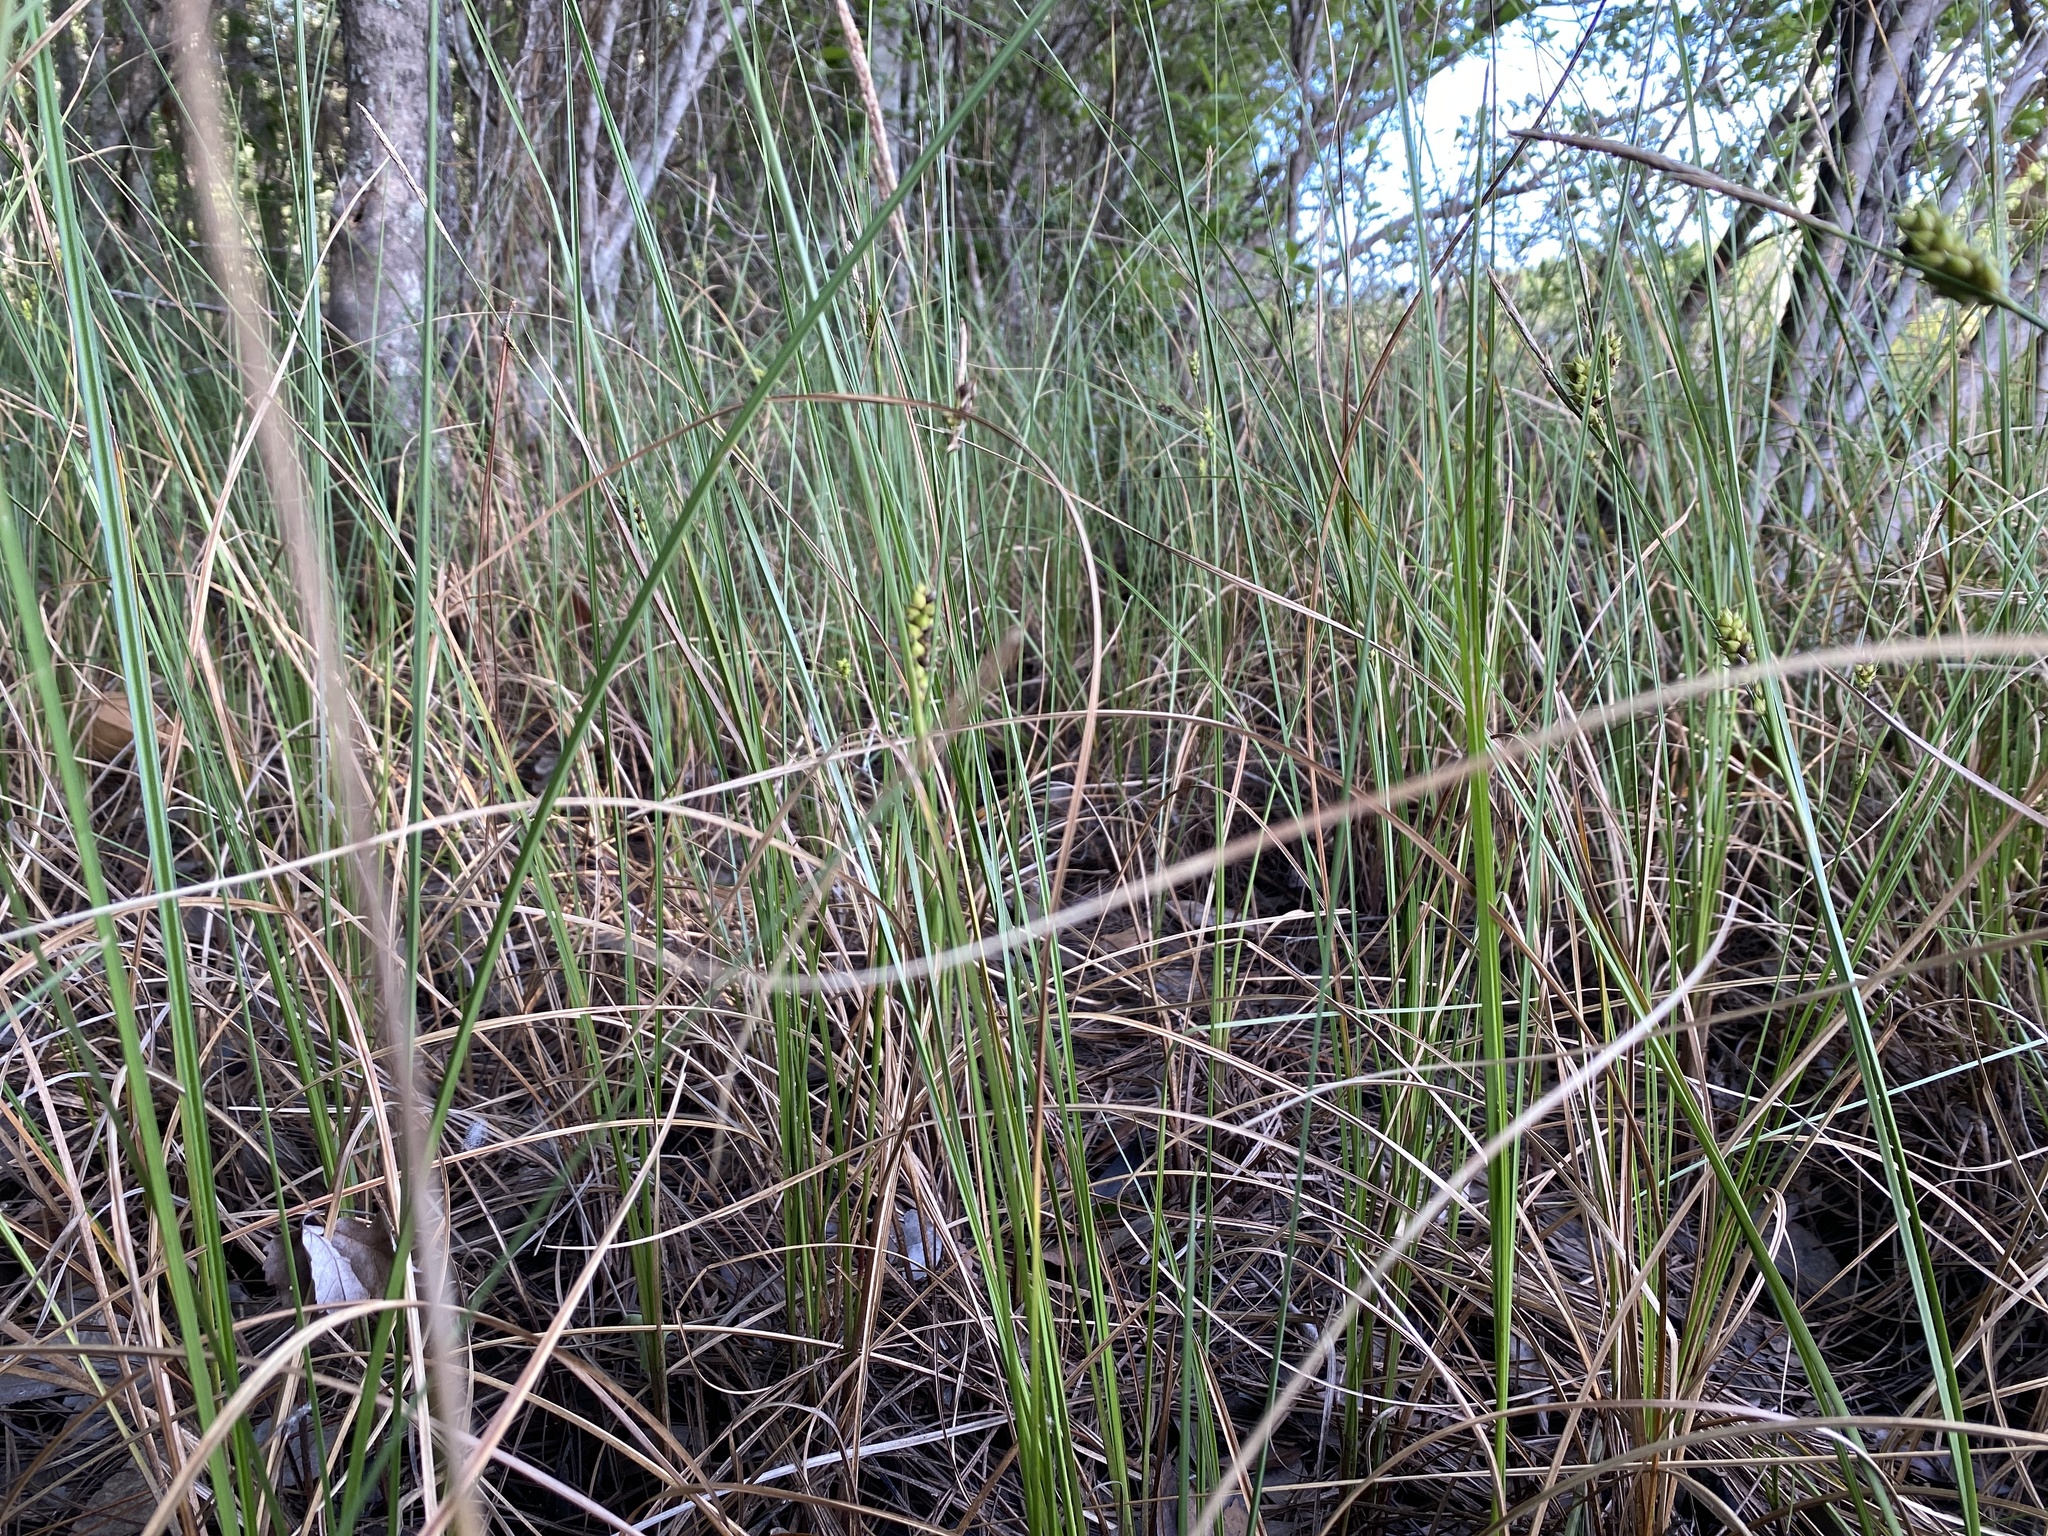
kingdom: Plantae
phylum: Tracheophyta
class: Liliopsida
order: Poales
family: Cyperaceae
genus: Carex
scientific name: Carex striata
